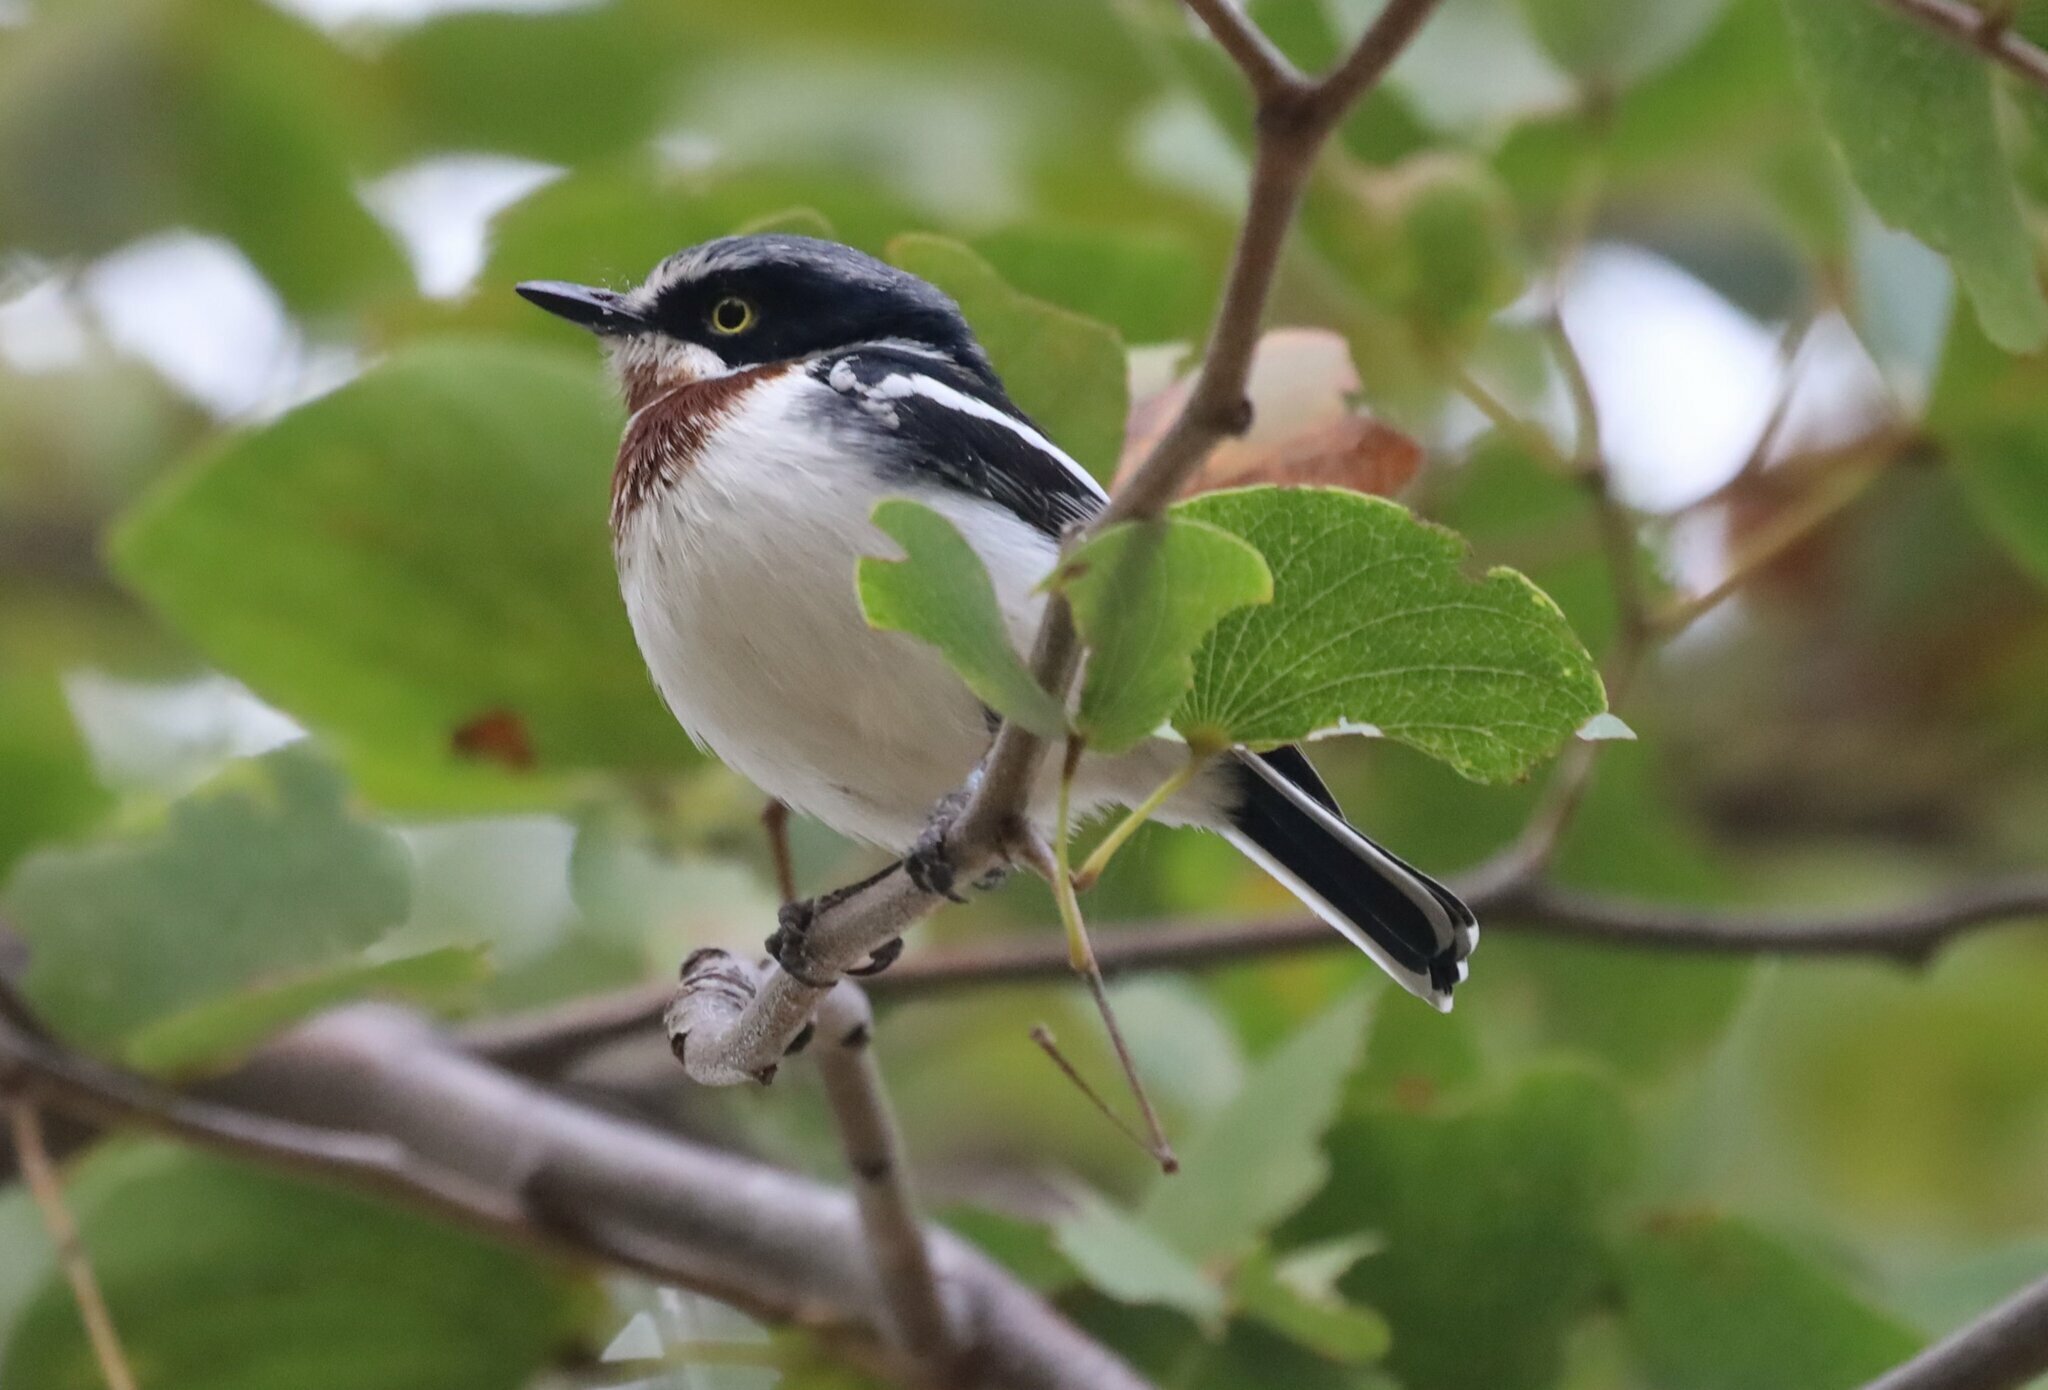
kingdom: Animalia
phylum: Chordata
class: Aves
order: Passeriformes
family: Platysteiridae
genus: Batis
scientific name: Batis molitor
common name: Chinspot batis
